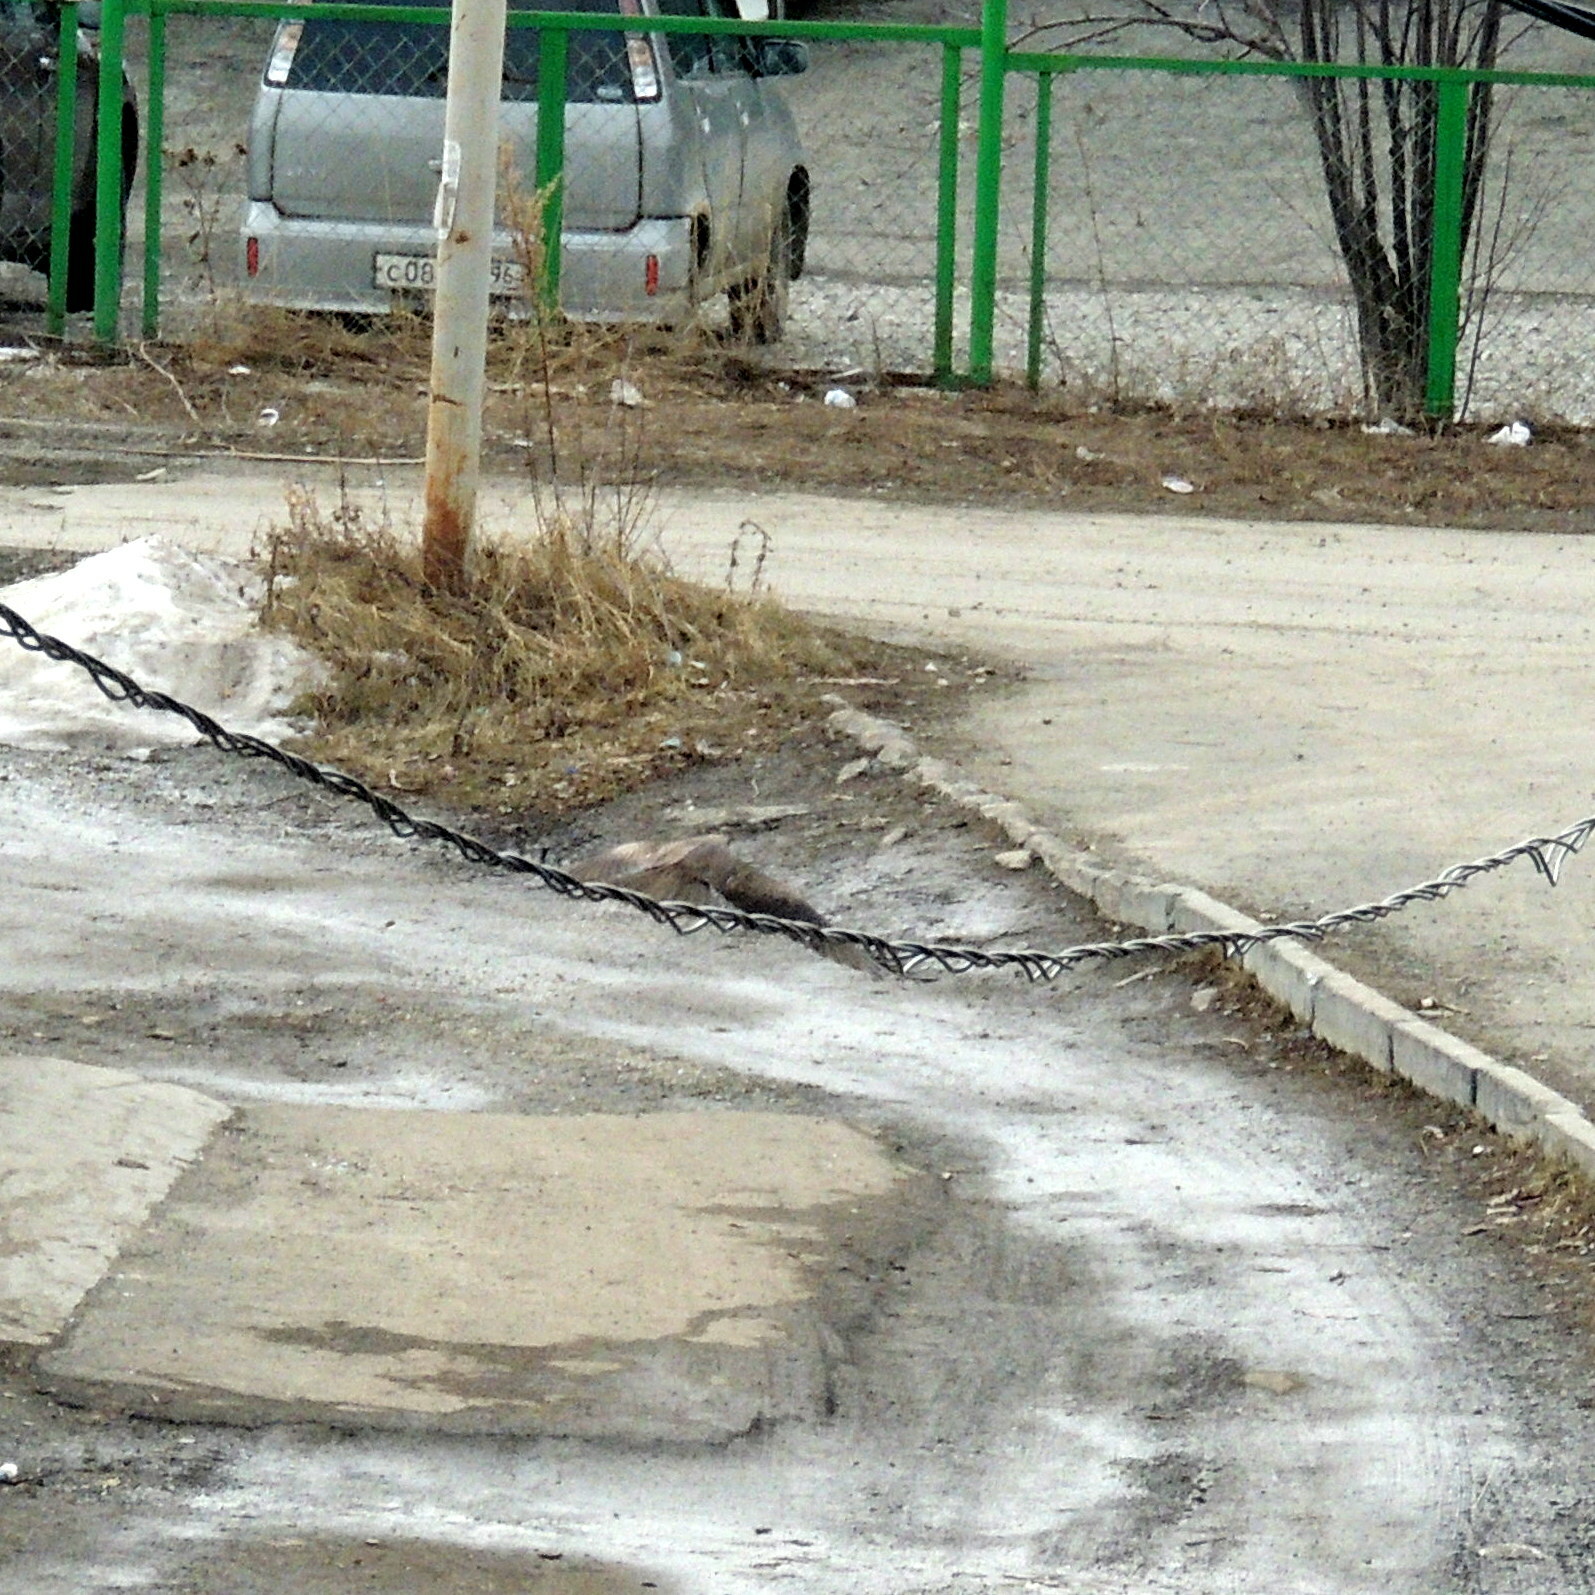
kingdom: Animalia
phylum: Chordata
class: Aves
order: Accipitriformes
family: Accipitridae
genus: Milvus
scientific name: Milvus migrans
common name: Black kite
